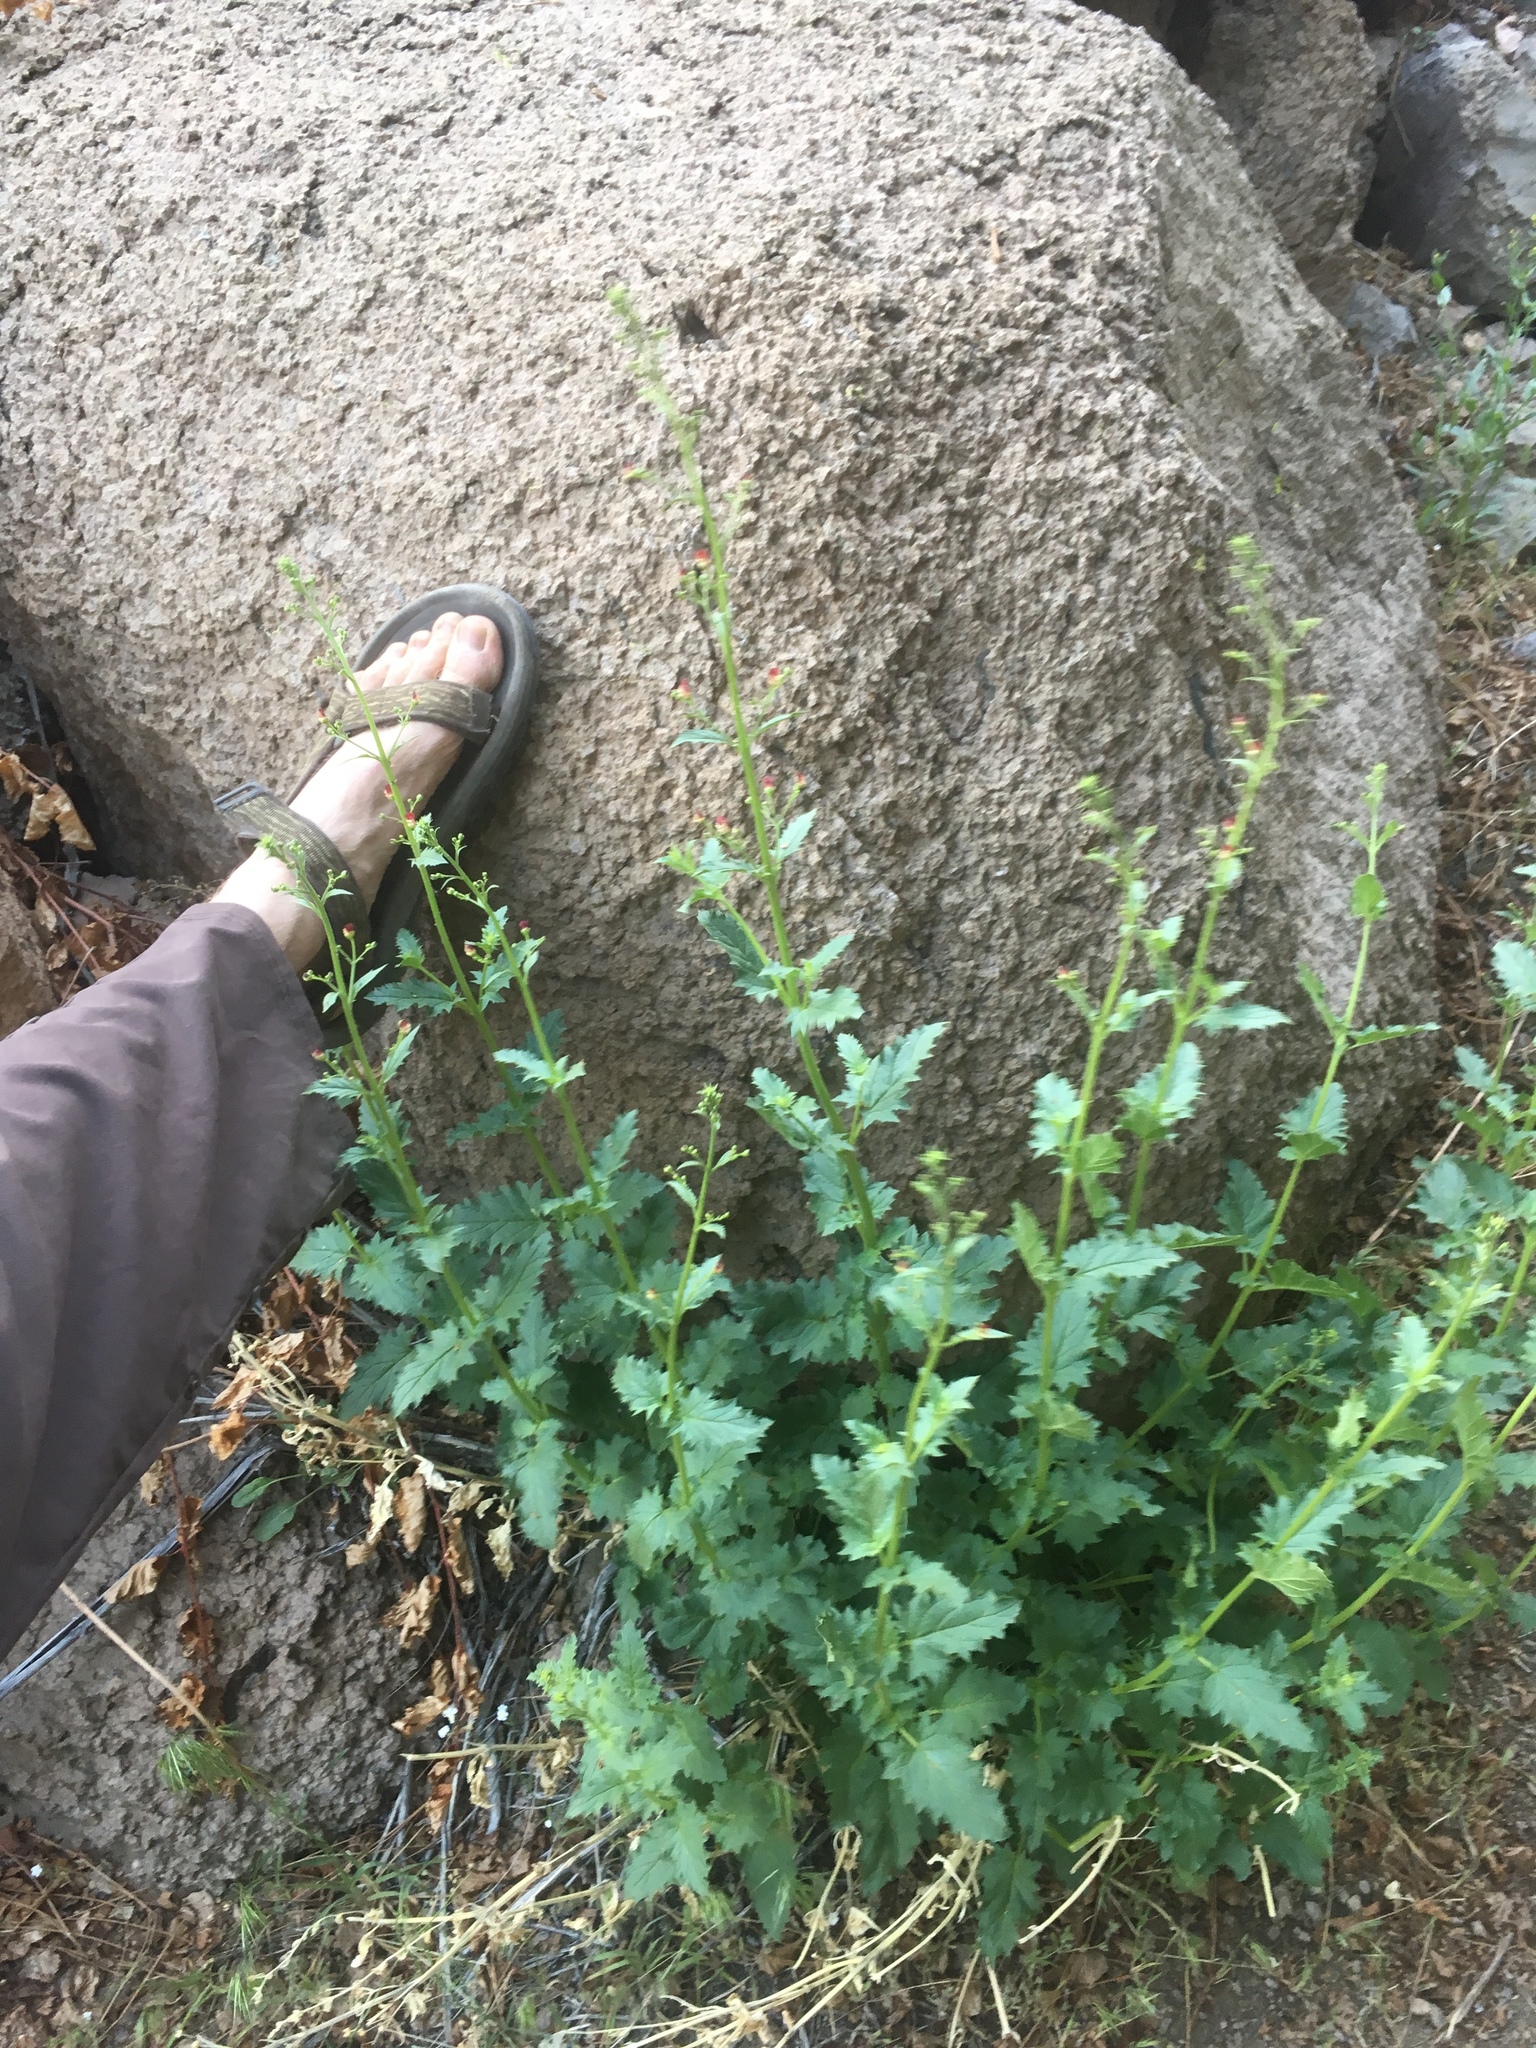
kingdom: Plantae
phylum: Tracheophyta
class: Magnoliopsida
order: Lamiales
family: Scrophulariaceae
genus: Scrophularia
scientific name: Scrophularia desertorum
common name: Desert figwort
